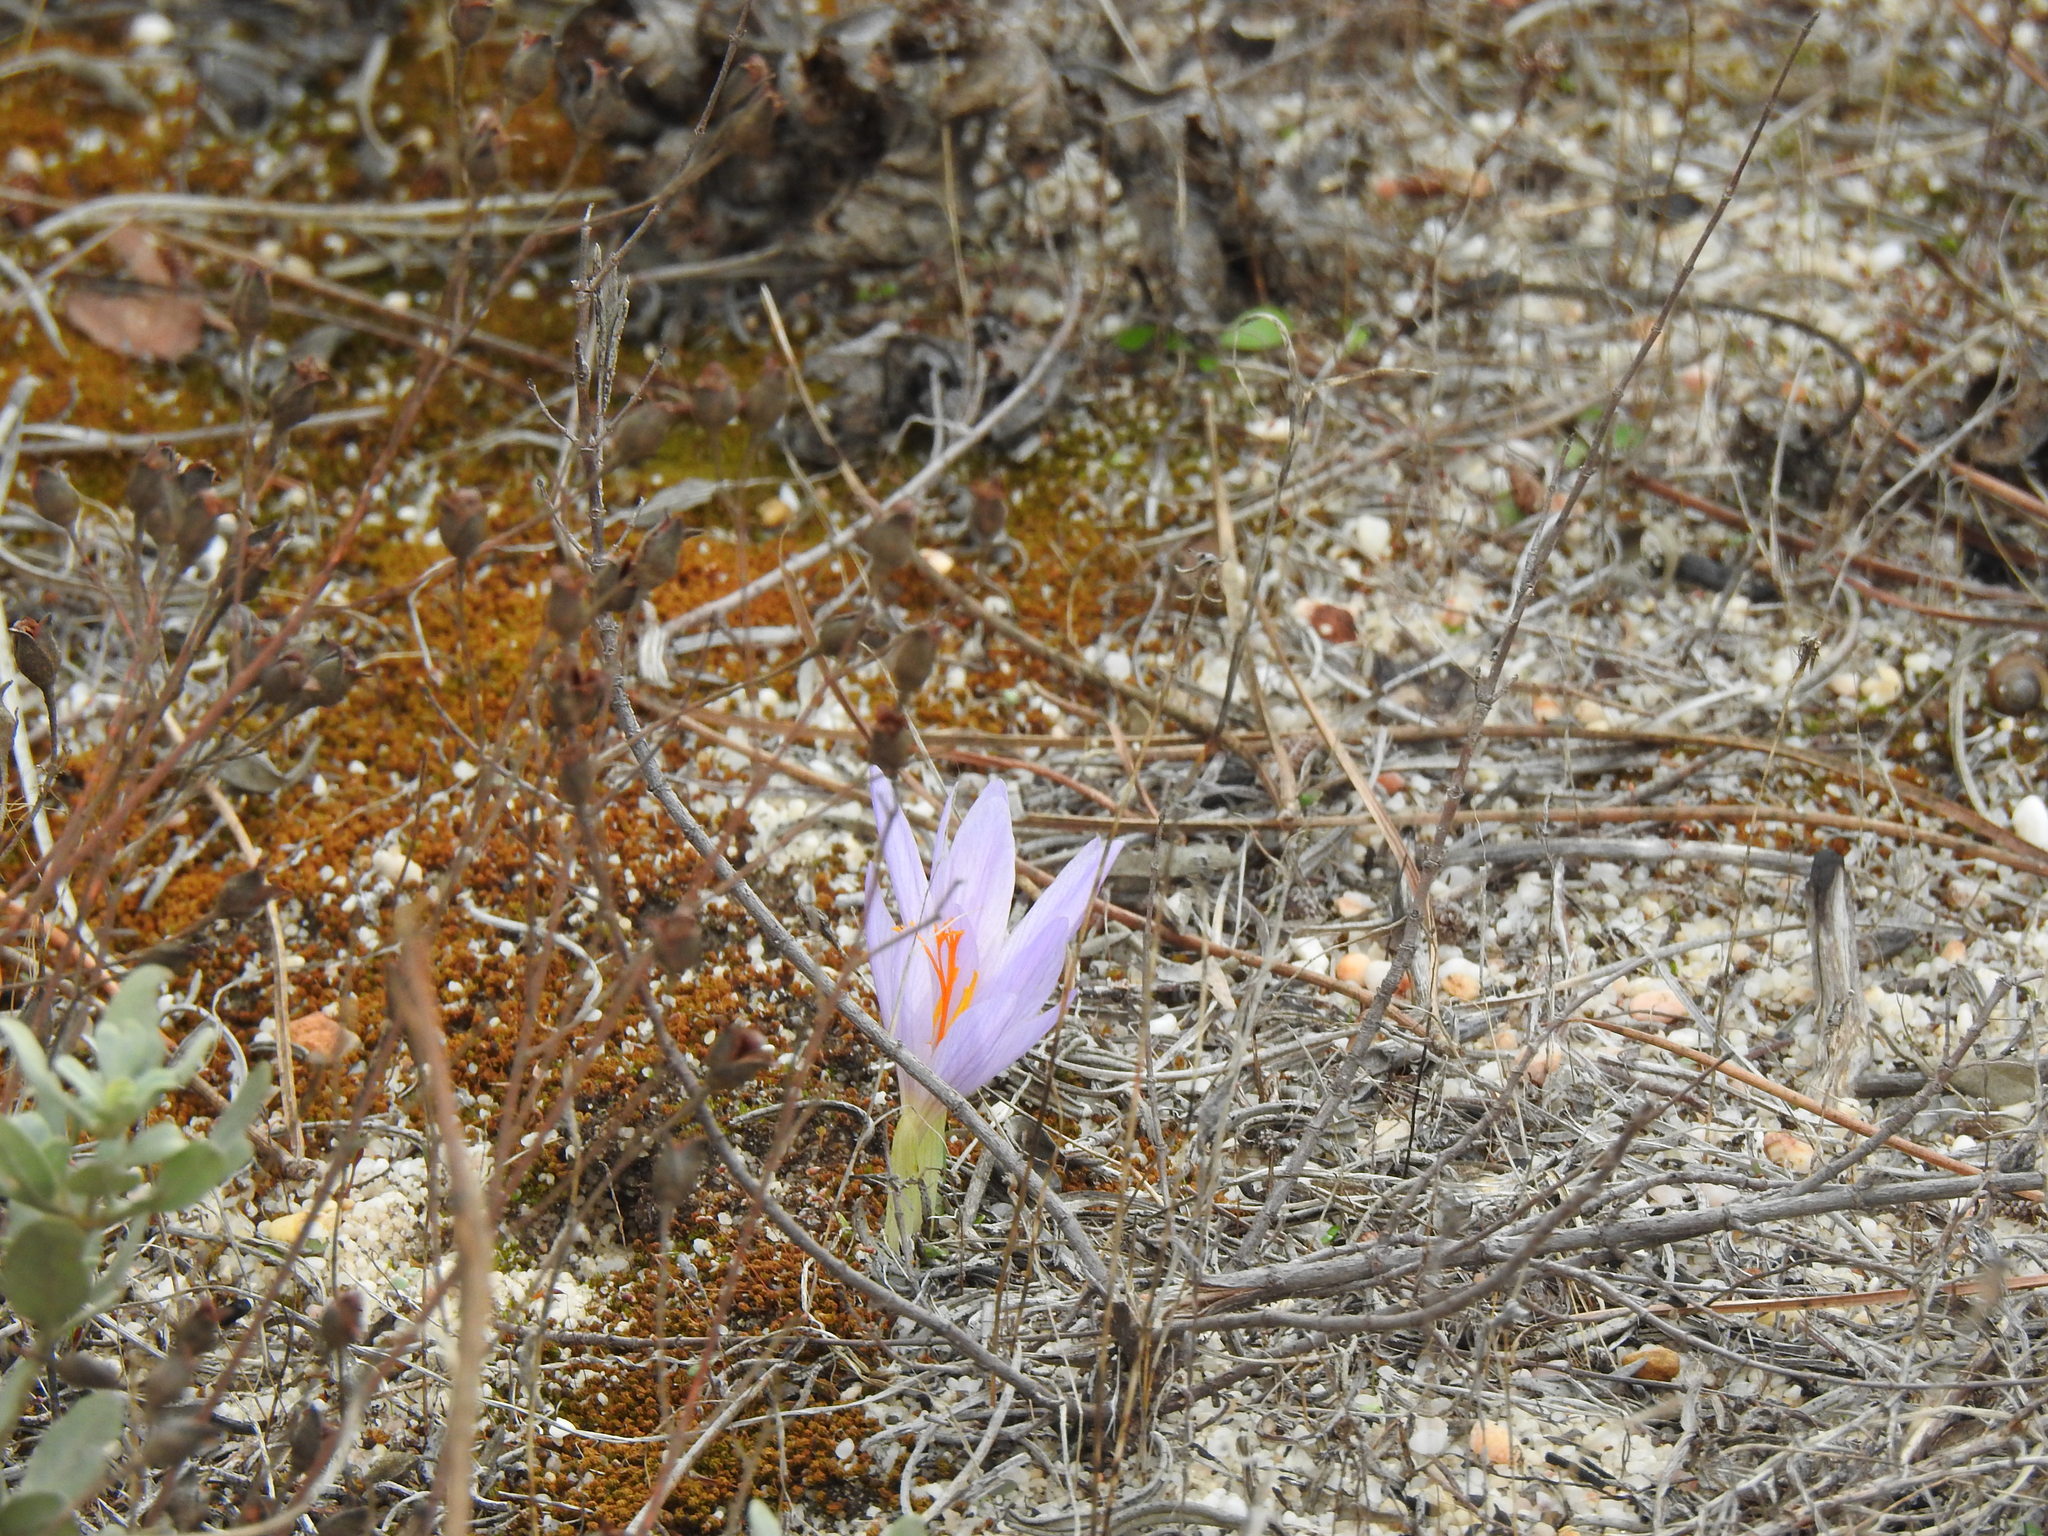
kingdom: Plantae
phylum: Tracheophyta
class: Liliopsida
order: Asparagales
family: Iridaceae
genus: Crocus
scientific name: Crocus serotinus
